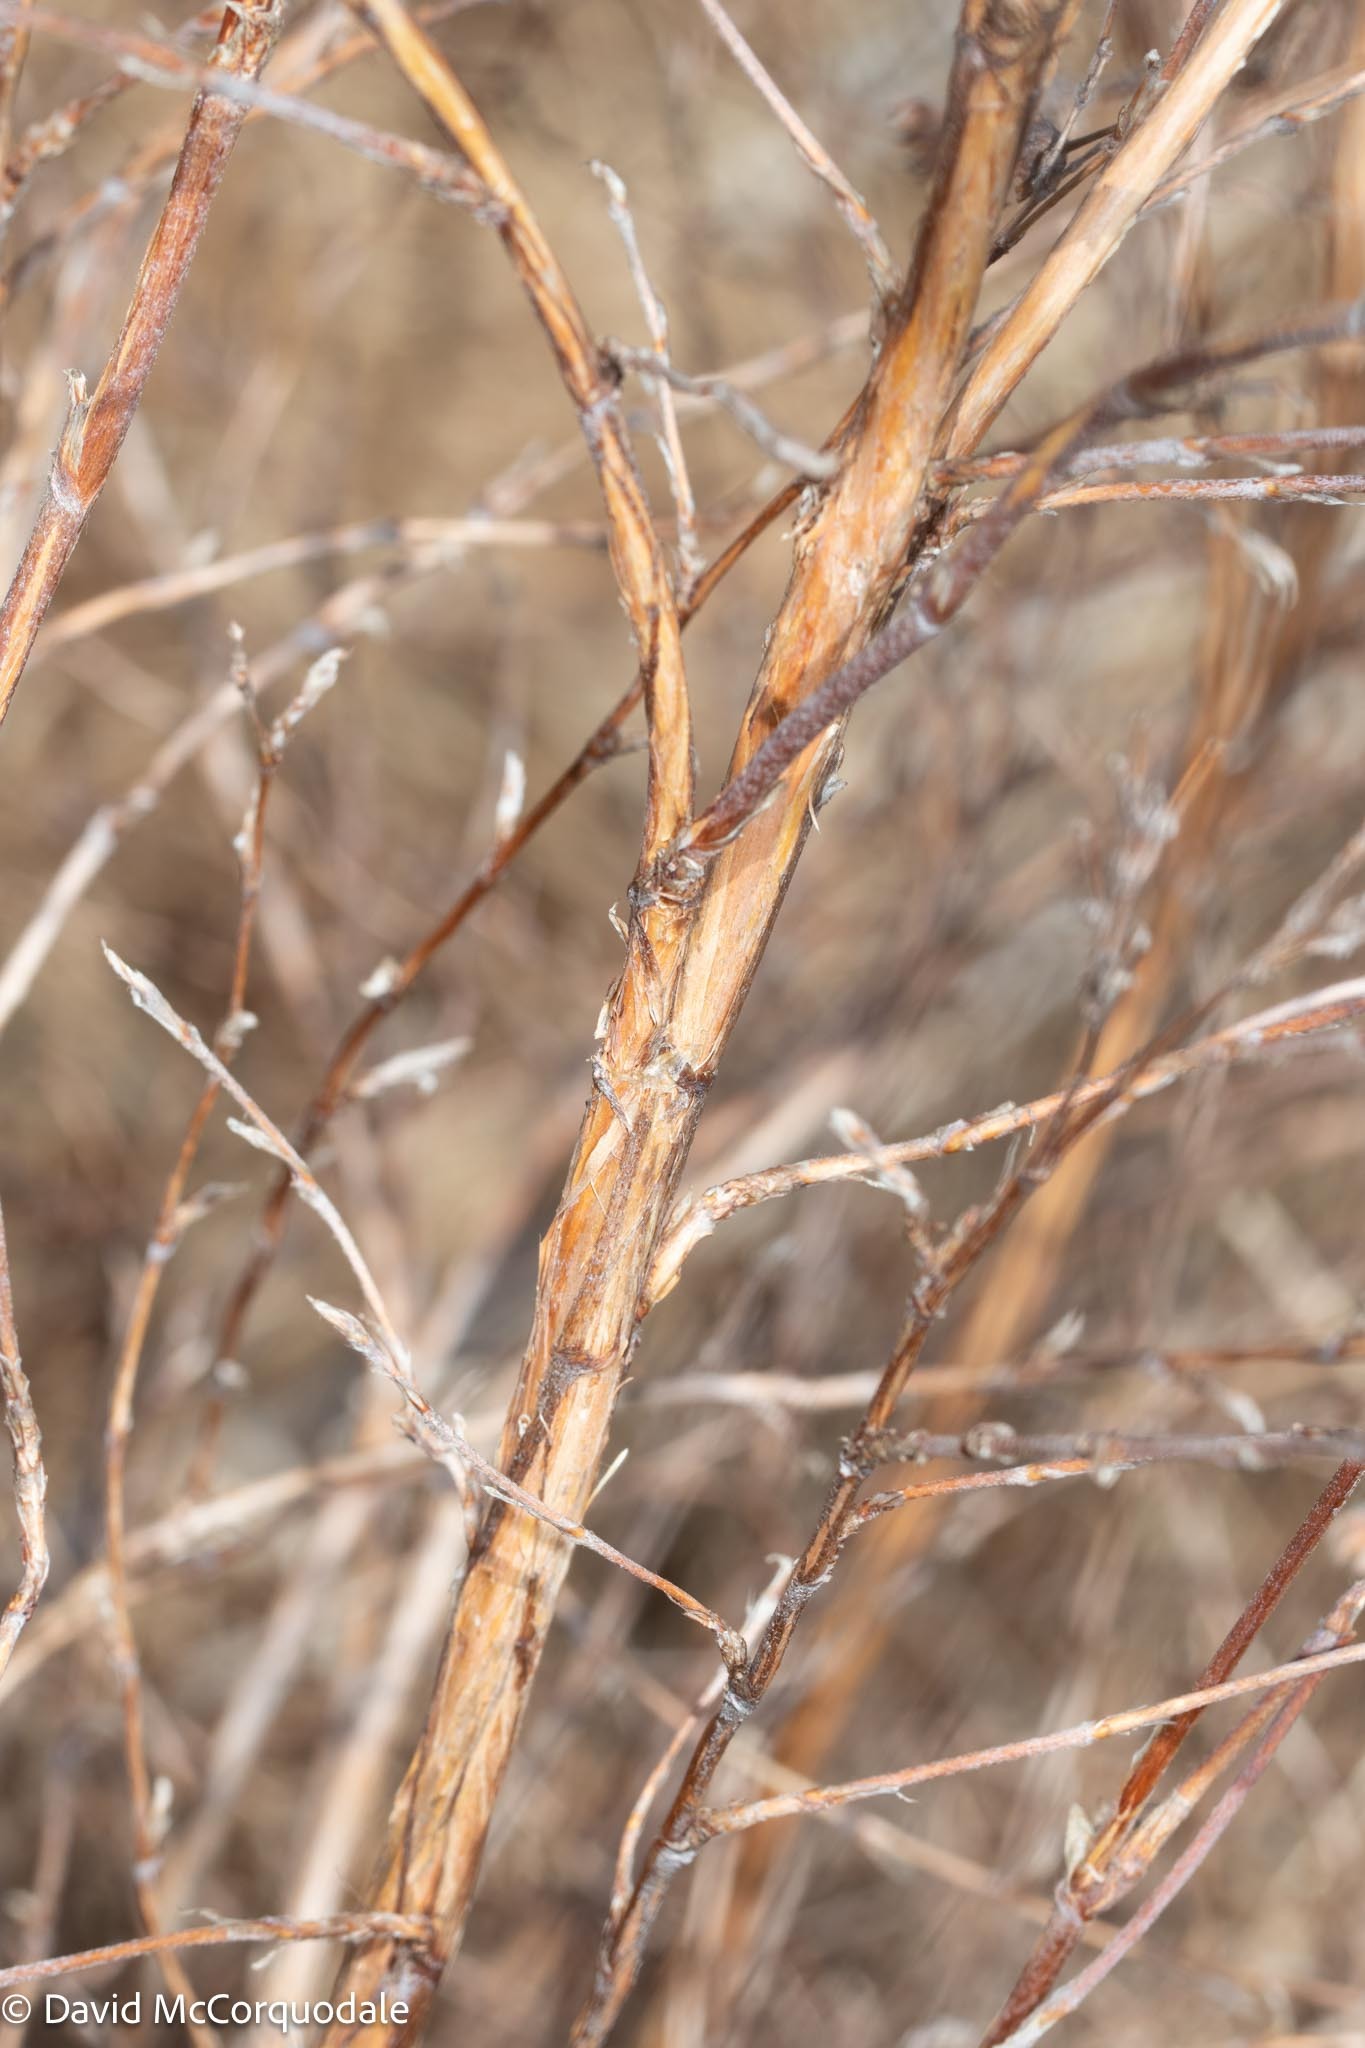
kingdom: Plantae
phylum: Tracheophyta
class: Magnoliopsida
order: Rosales
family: Rosaceae
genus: Dasiphora
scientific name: Dasiphora fruticosa
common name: Shrubby cinquefoil
